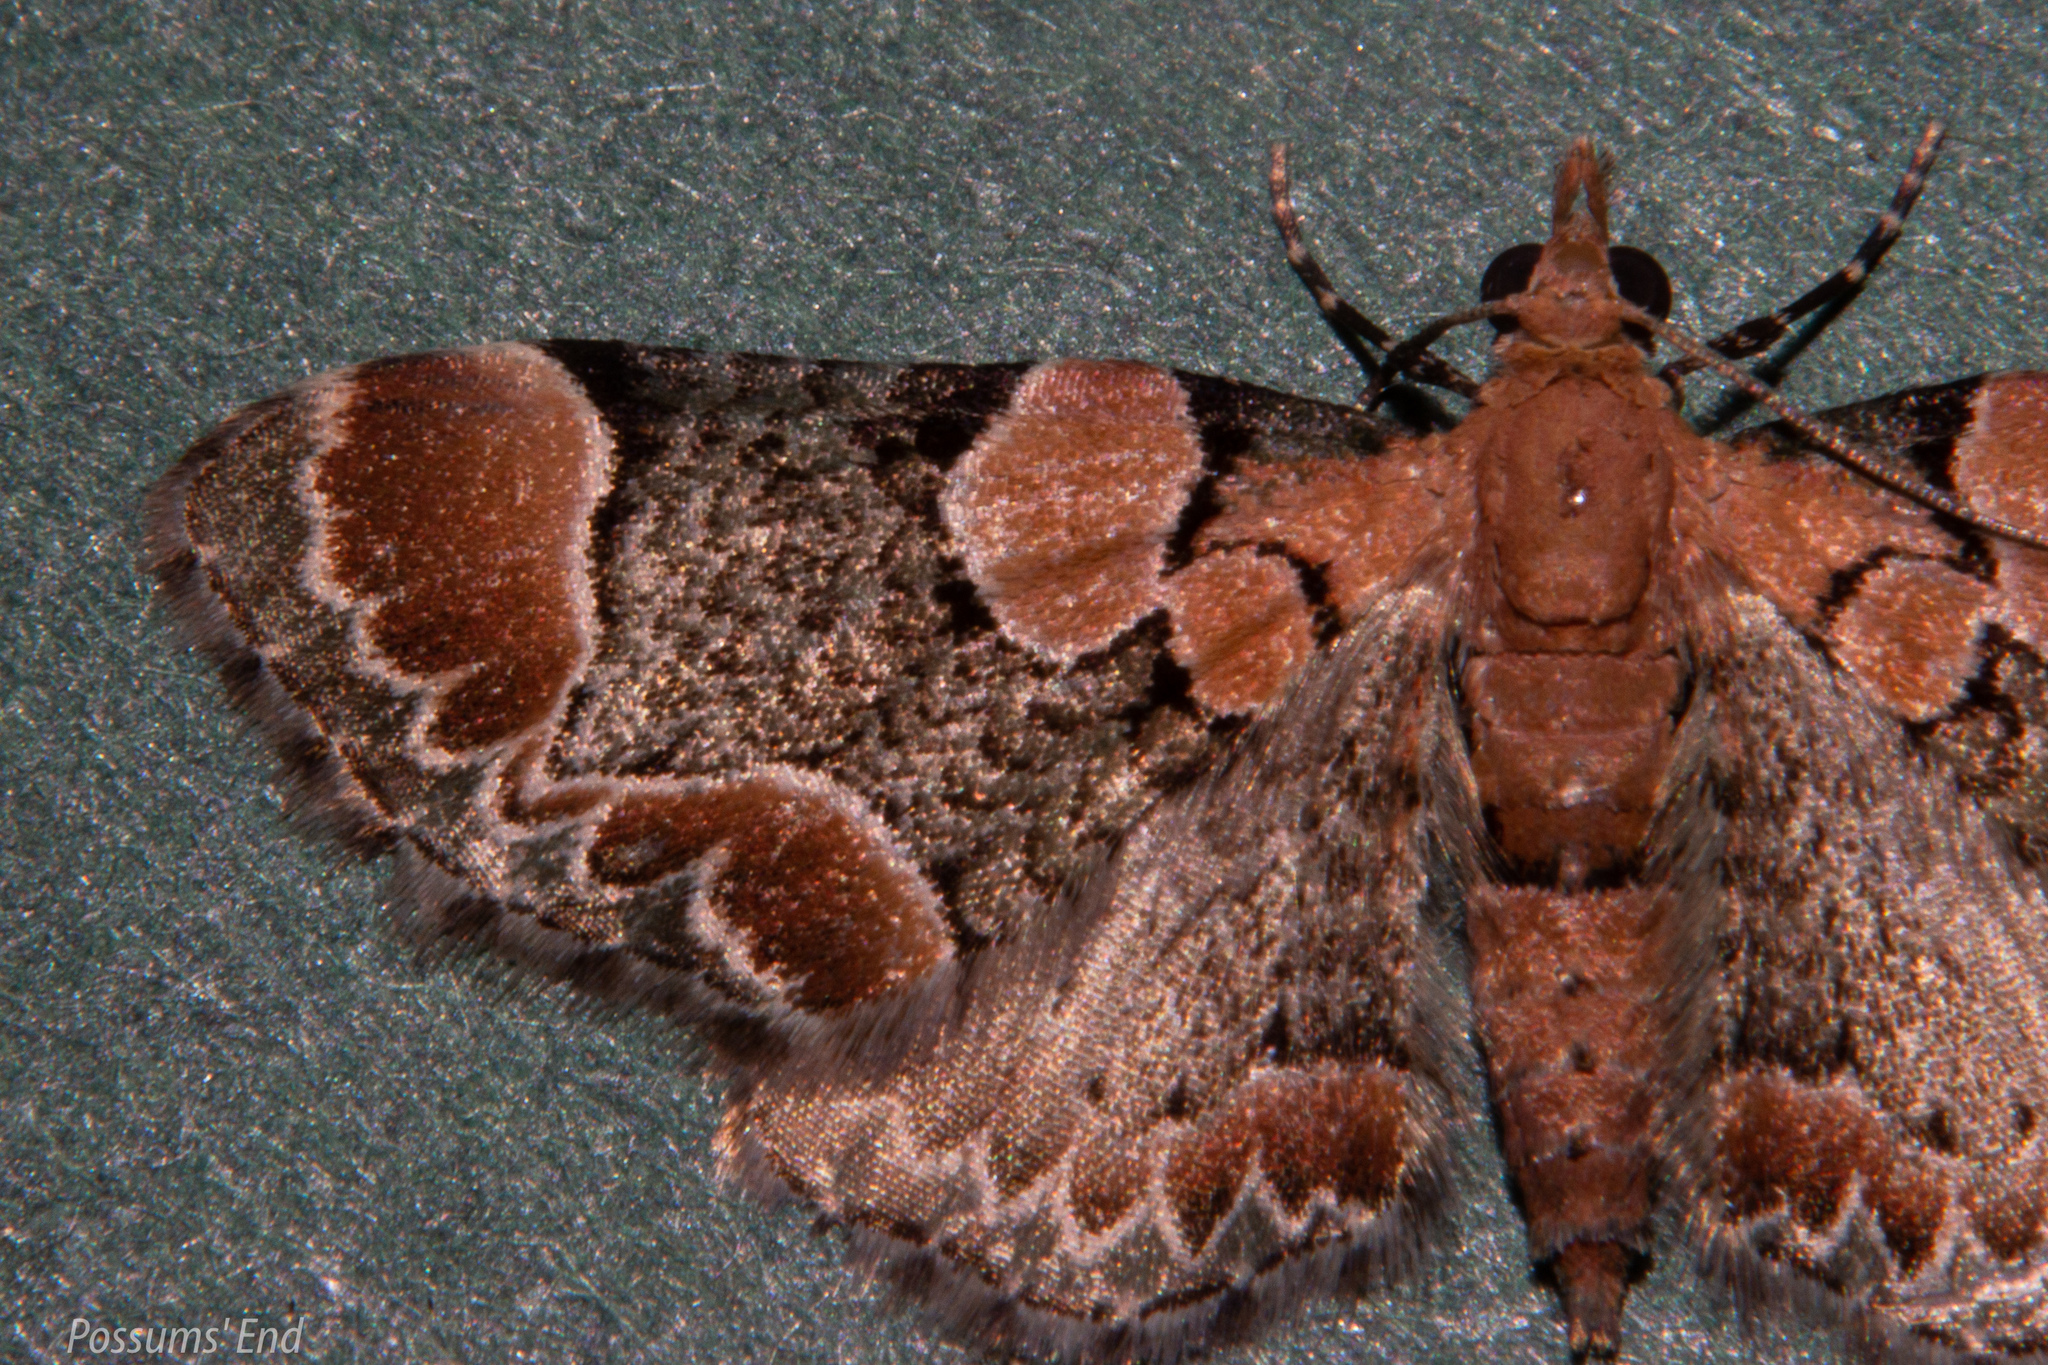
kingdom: Animalia
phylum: Arthropoda
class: Insecta
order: Lepidoptera
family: Geometridae
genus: Chloroclystis
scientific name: Chloroclystis
